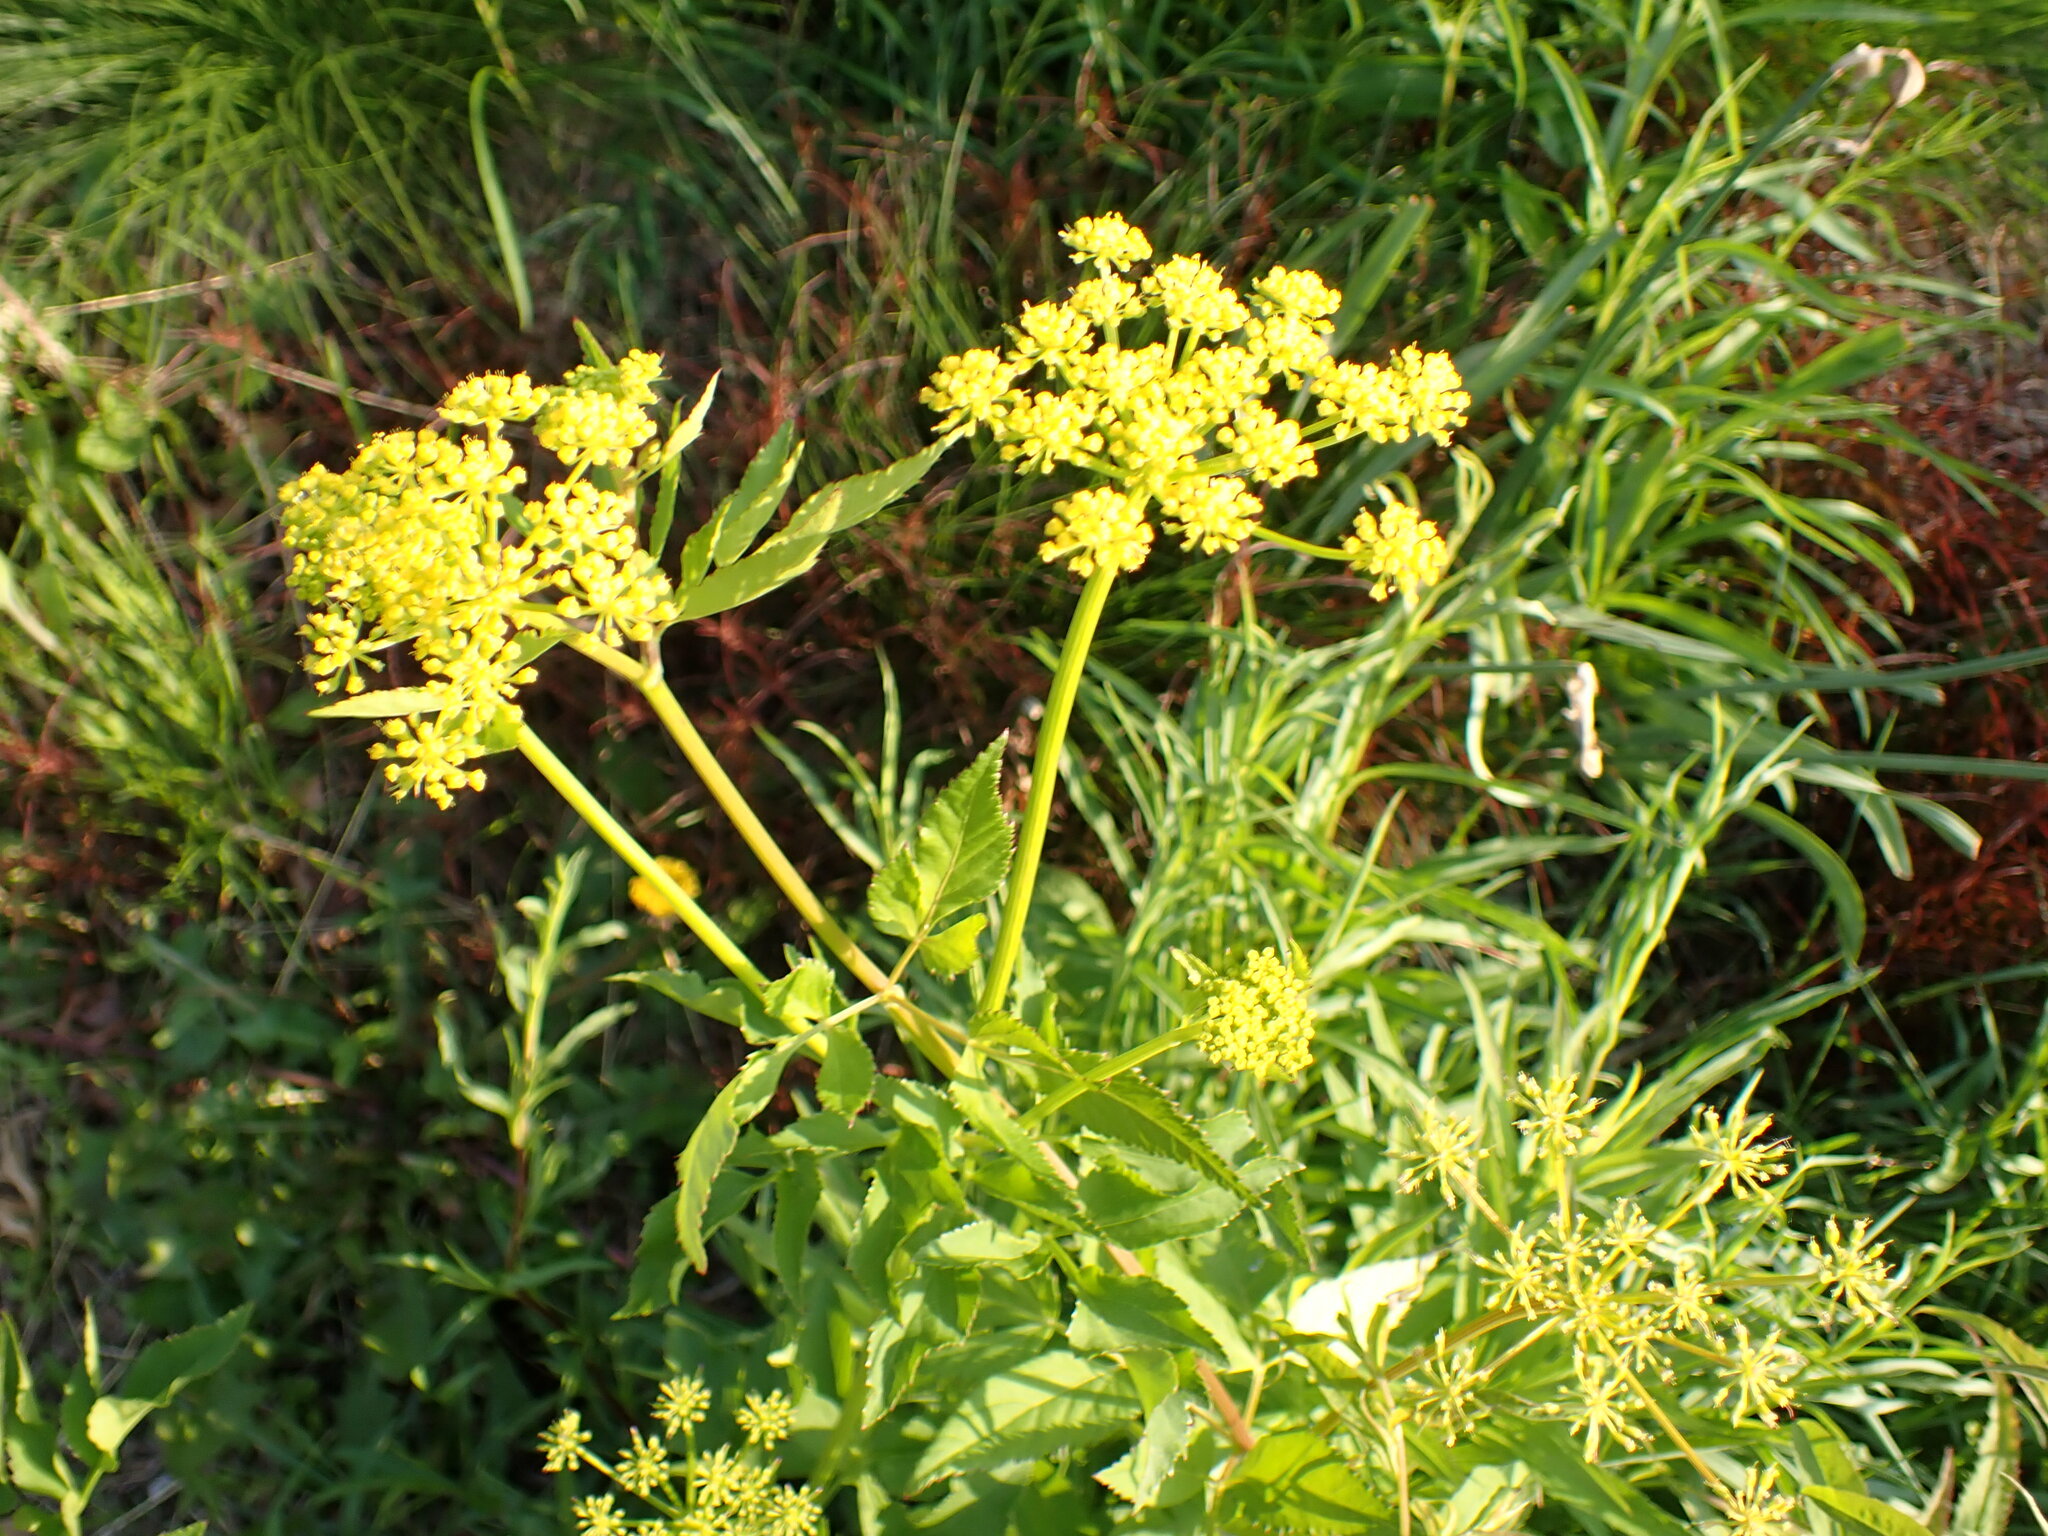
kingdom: Plantae
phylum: Tracheophyta
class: Magnoliopsida
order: Apiales
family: Apiaceae
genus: Zizia
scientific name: Zizia aurea
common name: Golden alexanders
